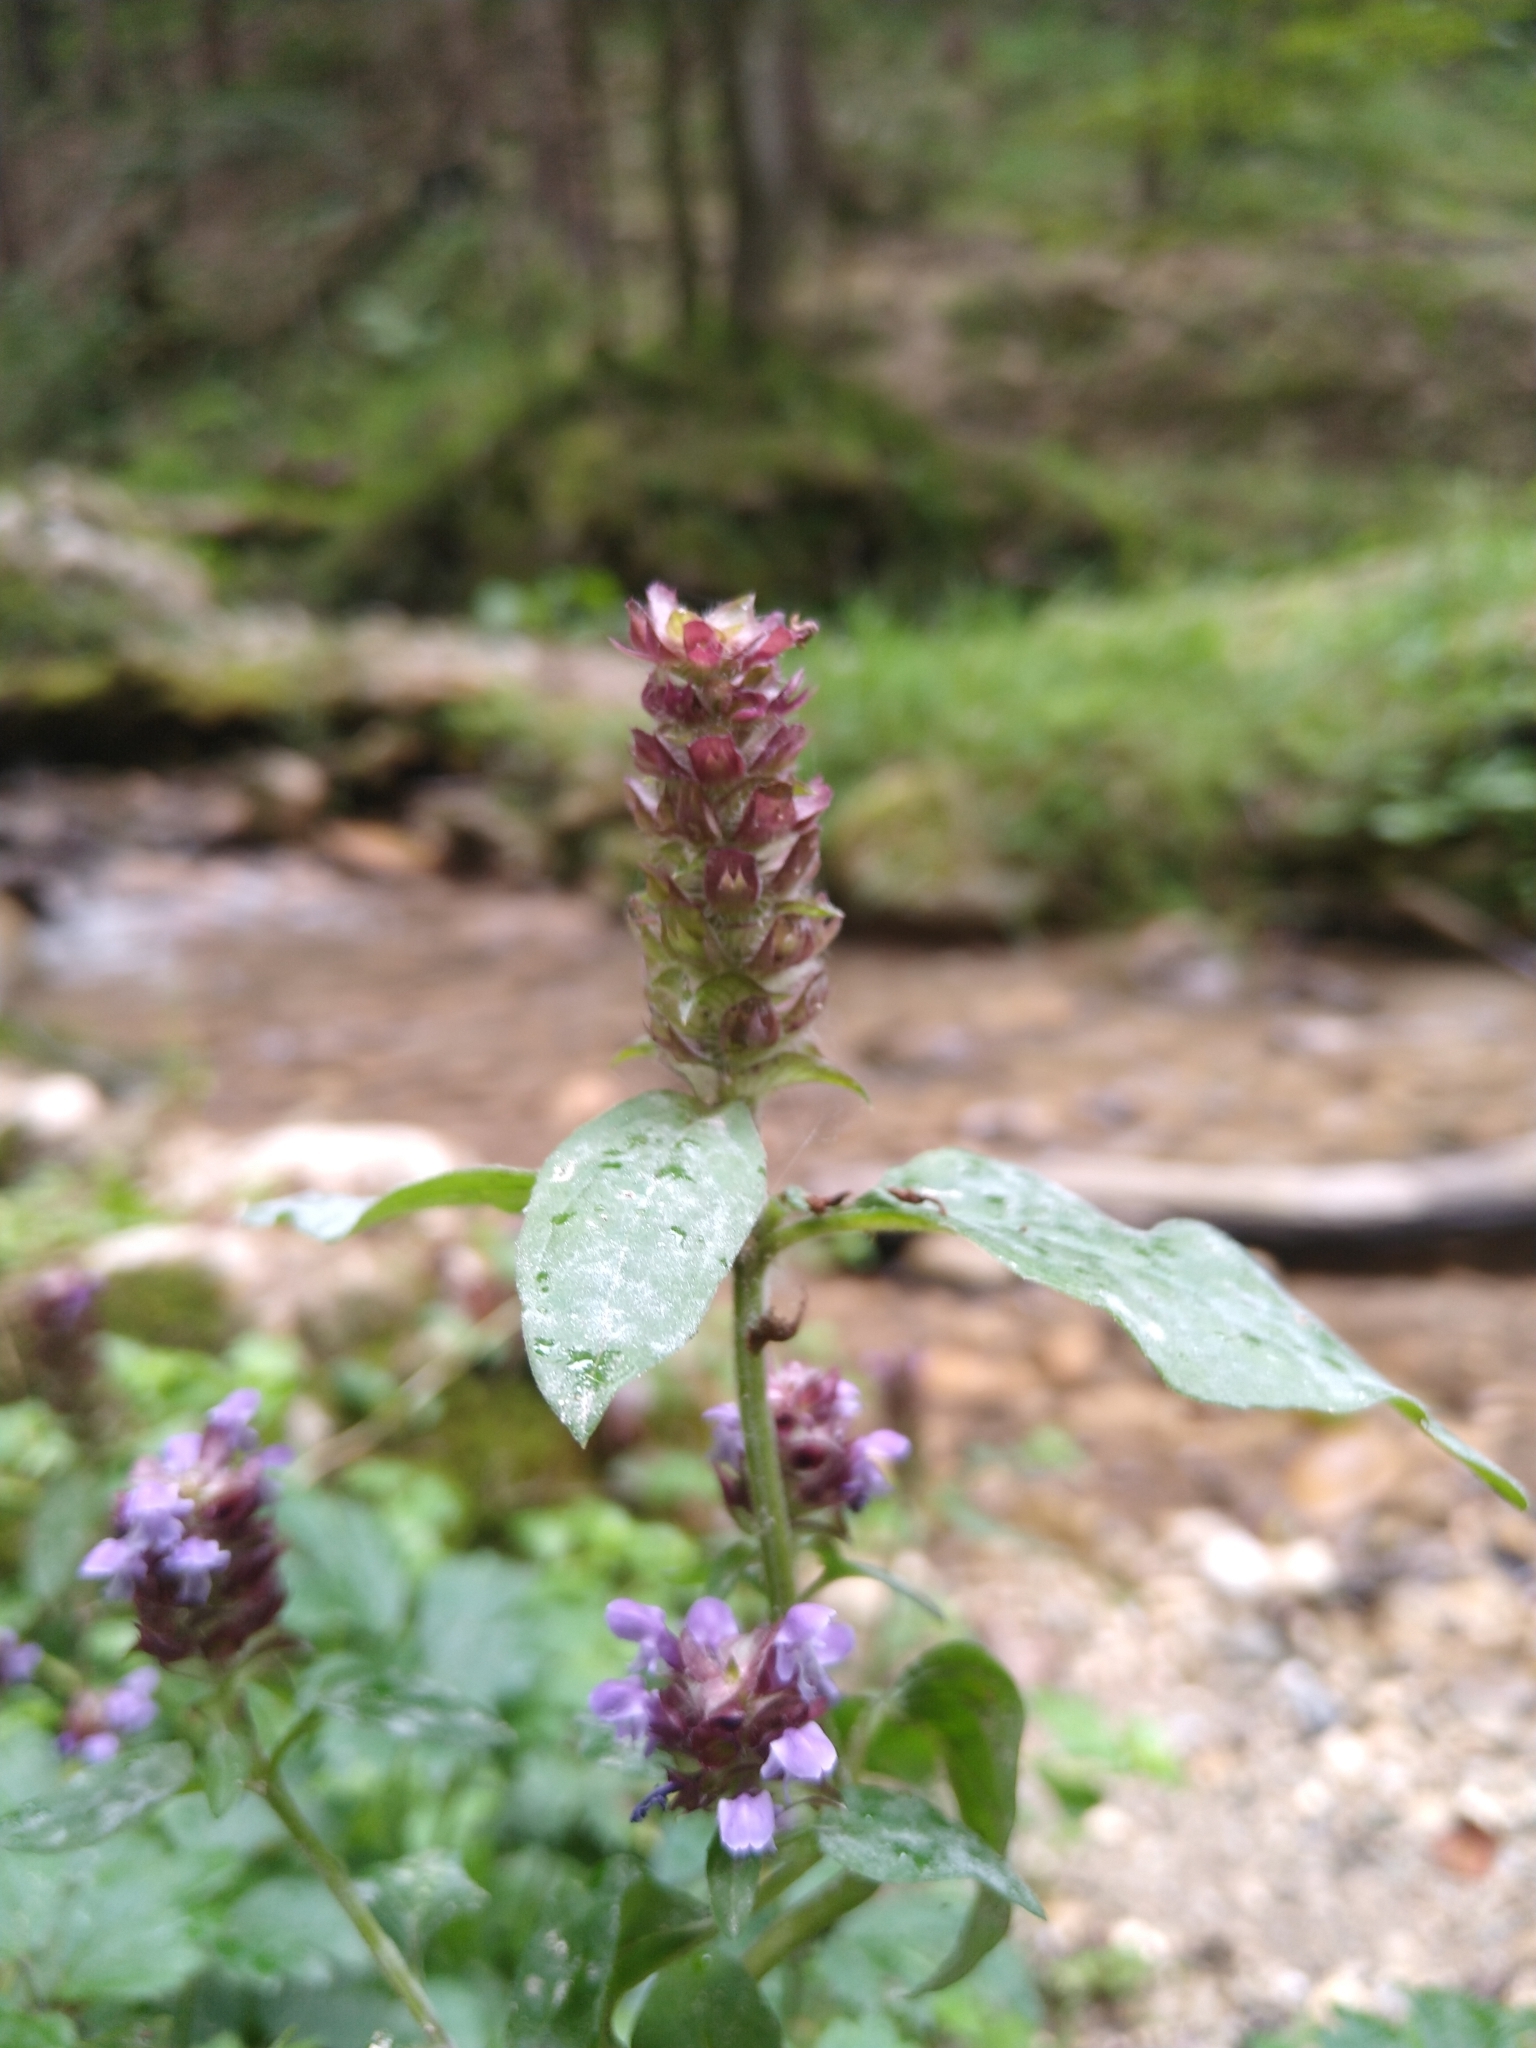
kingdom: Plantae
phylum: Tracheophyta
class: Magnoliopsida
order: Lamiales
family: Lamiaceae
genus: Prunella
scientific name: Prunella vulgaris
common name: Heal-all
